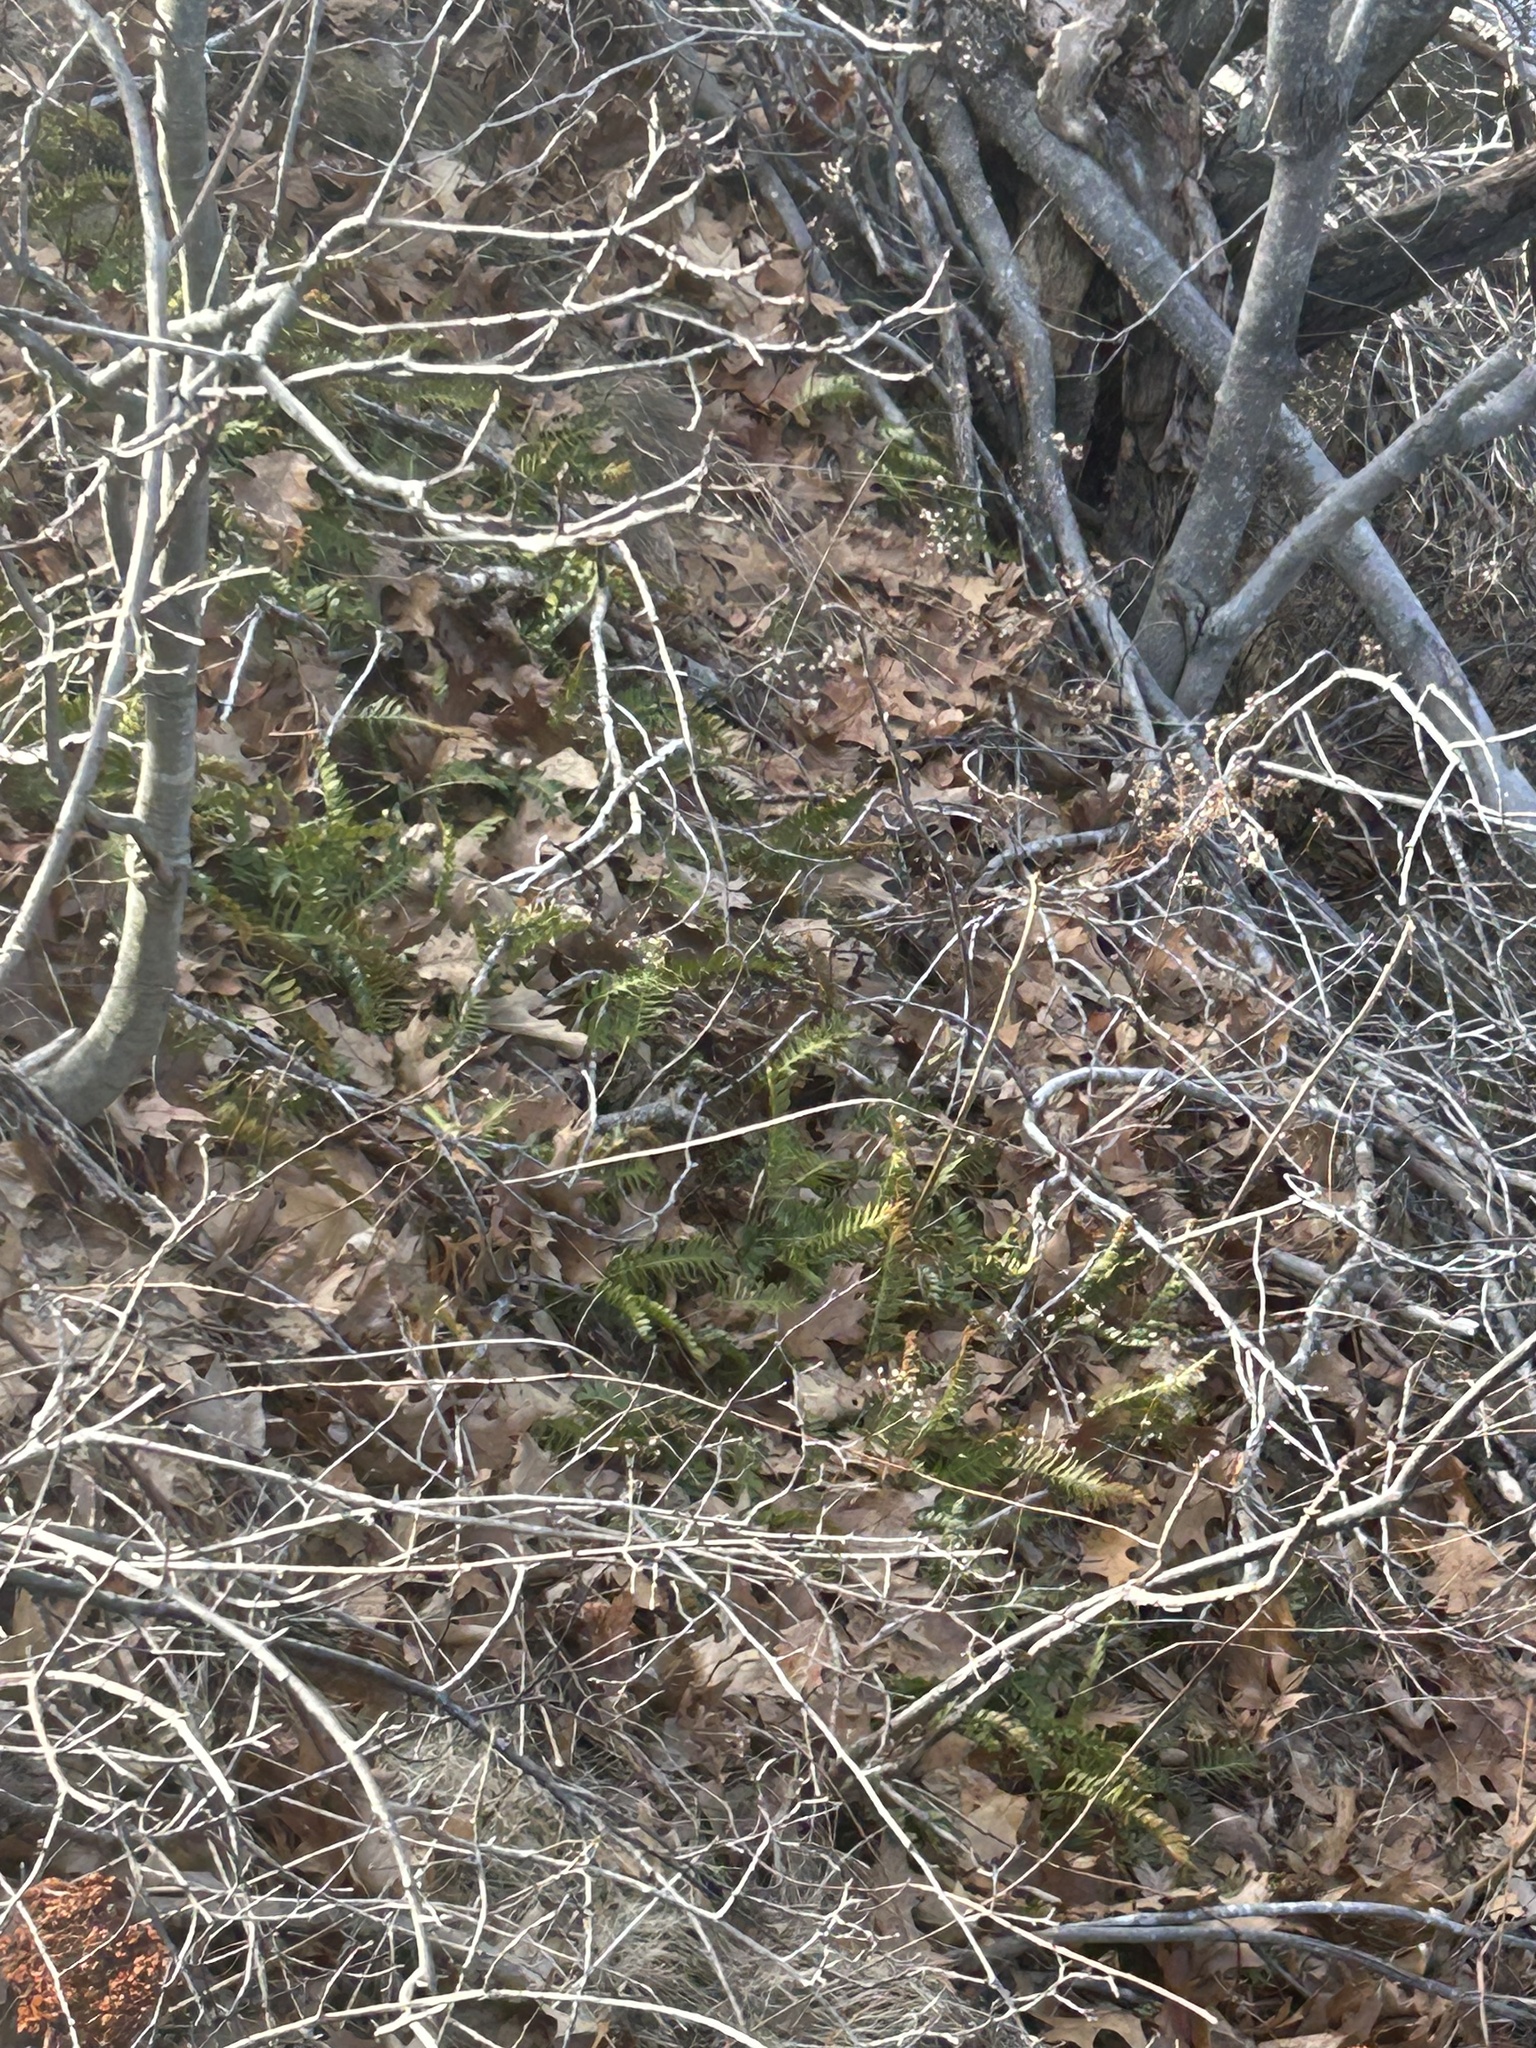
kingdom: Plantae
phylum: Tracheophyta
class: Polypodiopsida
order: Polypodiales
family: Polypodiaceae
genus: Polypodium
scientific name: Polypodium virginianum
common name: American wall fern
